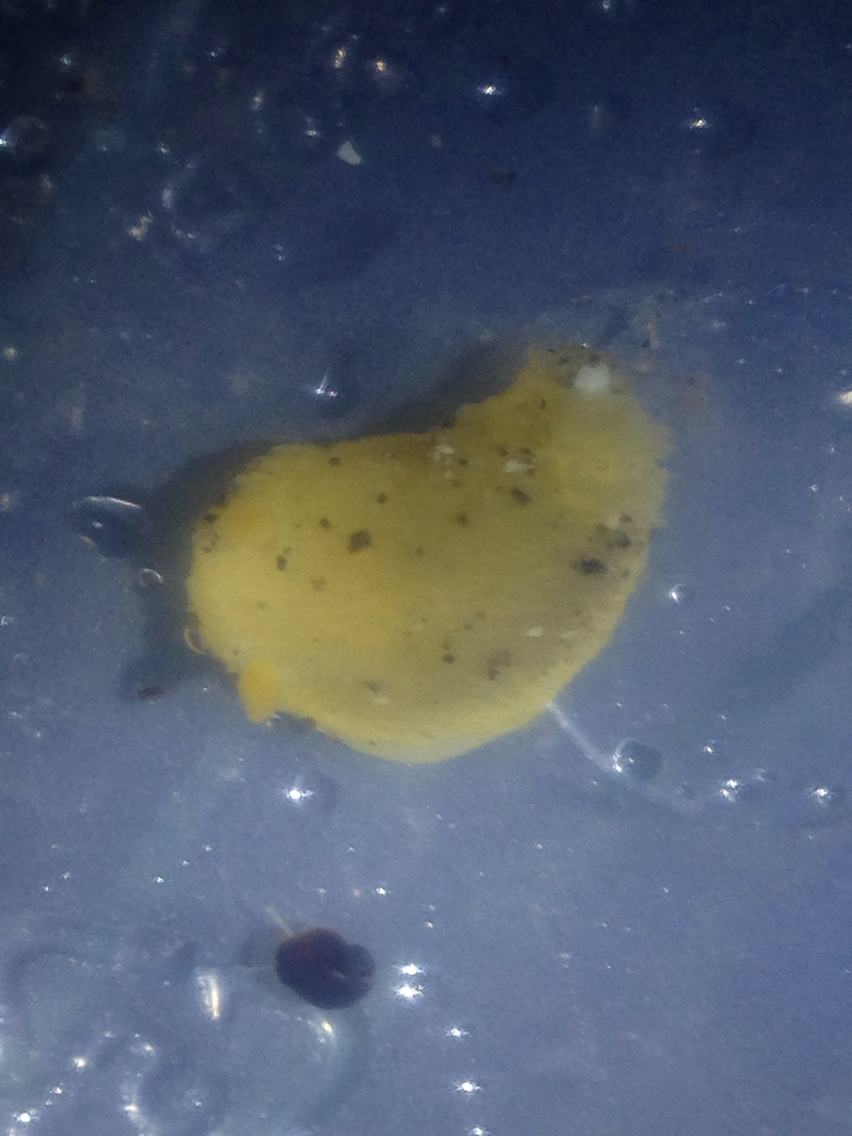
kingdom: Animalia
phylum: Mollusca
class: Gastropoda
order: Nudibranchia
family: Dorididae
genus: Doris
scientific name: Doris montereyensis
